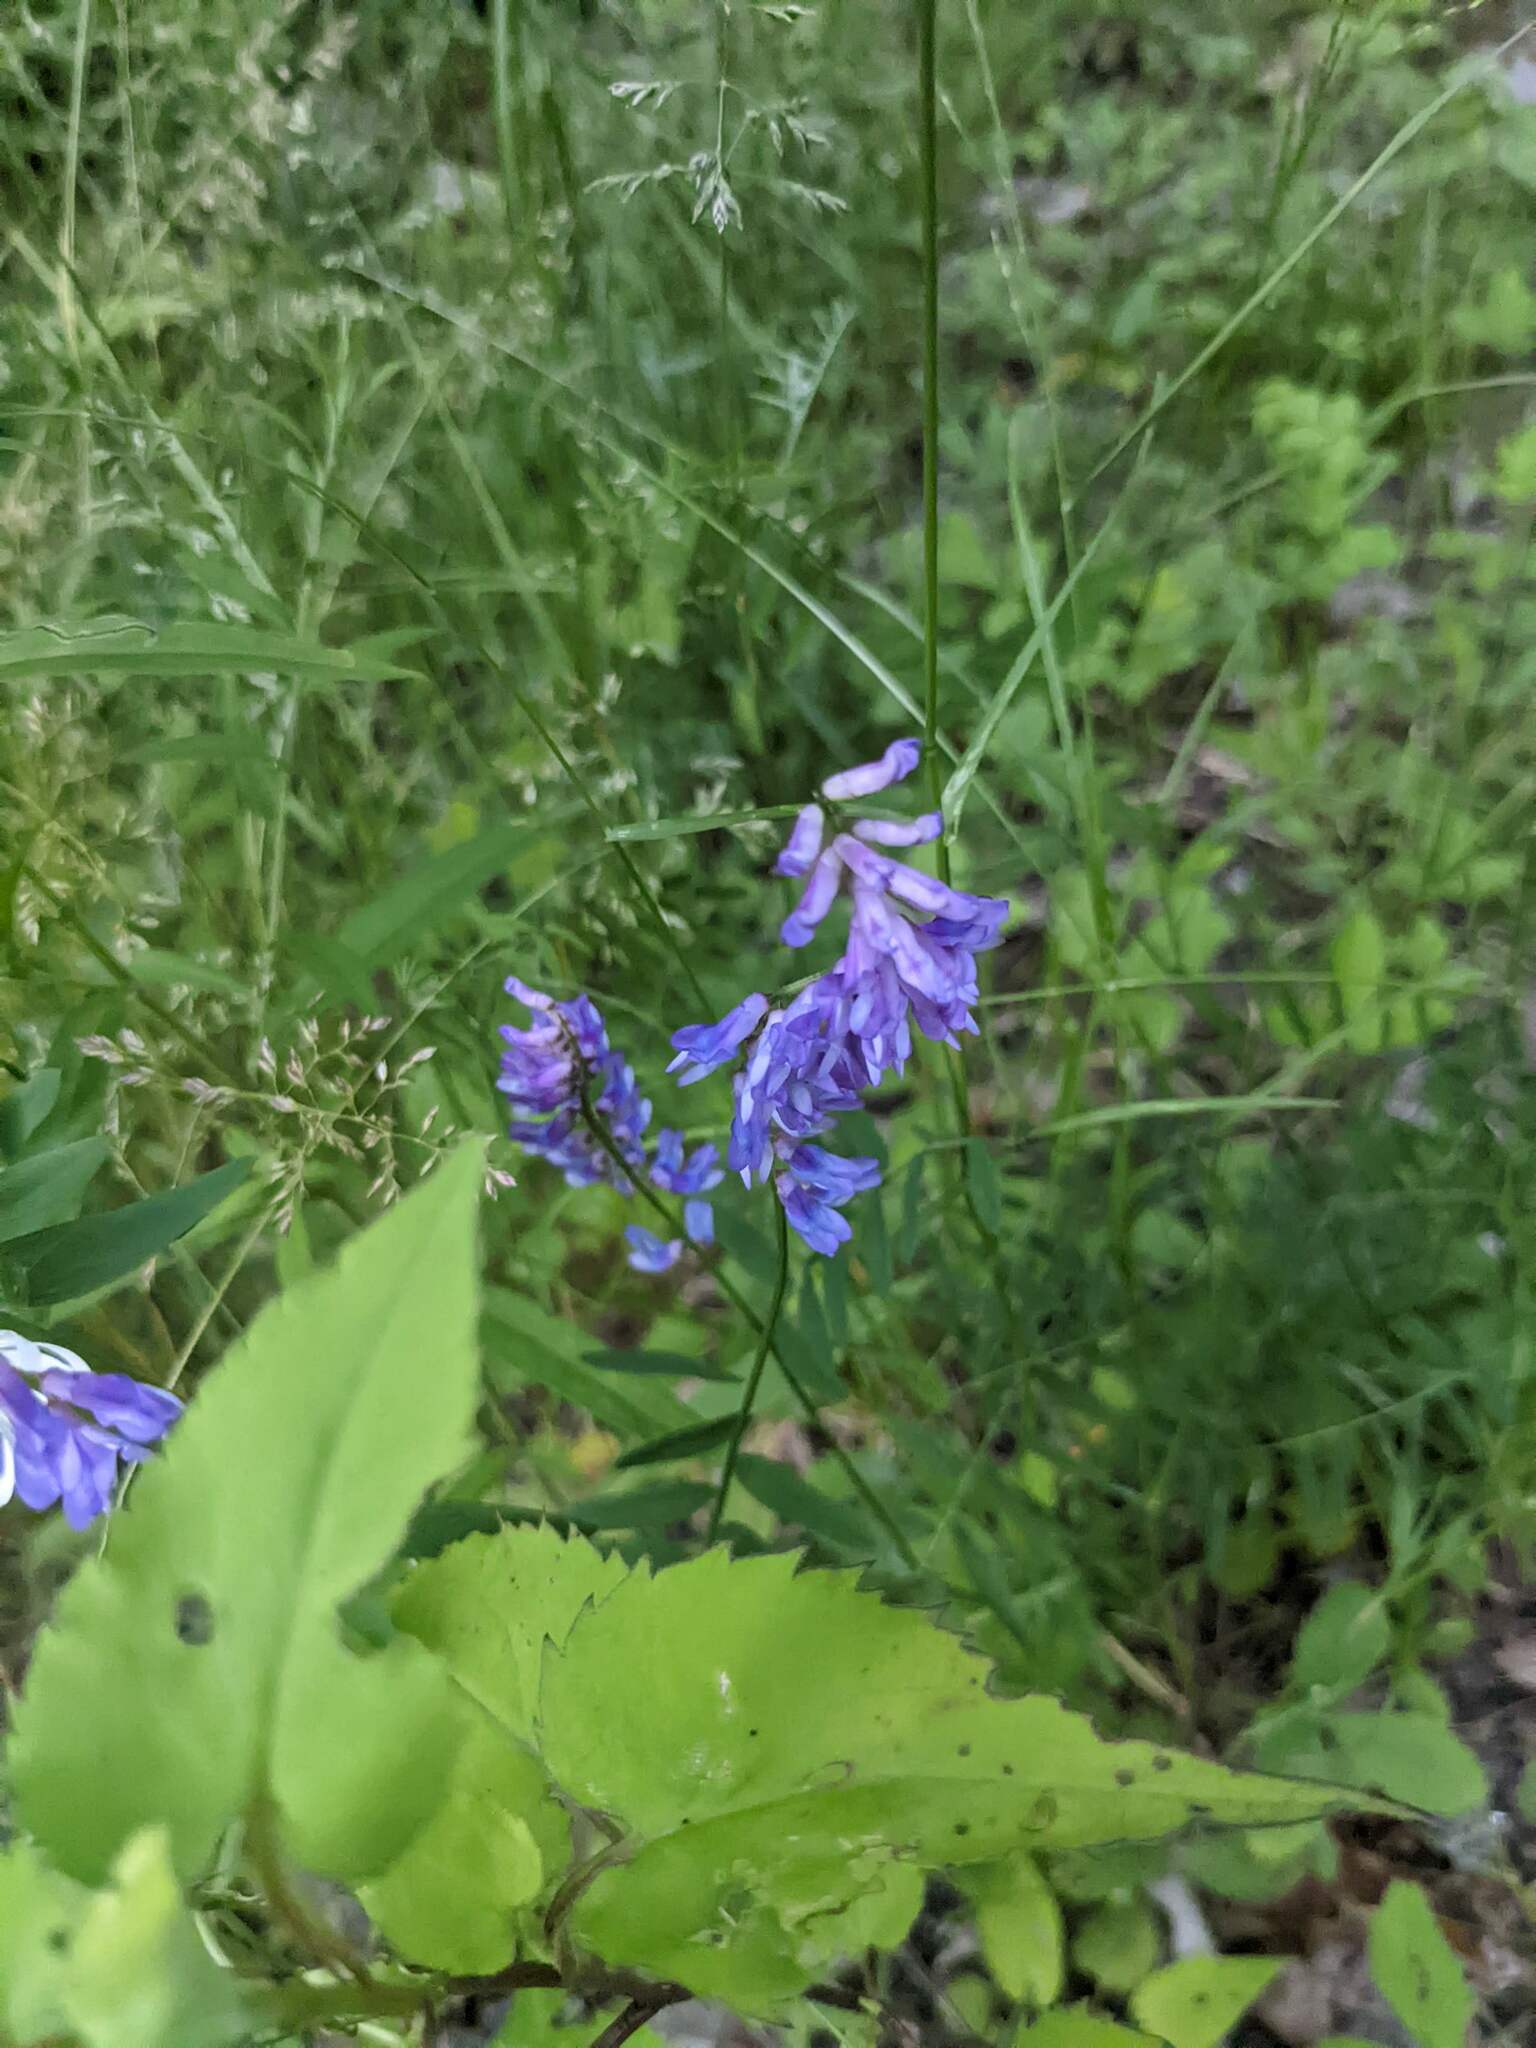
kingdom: Plantae
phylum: Tracheophyta
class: Magnoliopsida
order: Fabales
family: Fabaceae
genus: Vicia
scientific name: Vicia cracca
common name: Bird vetch
